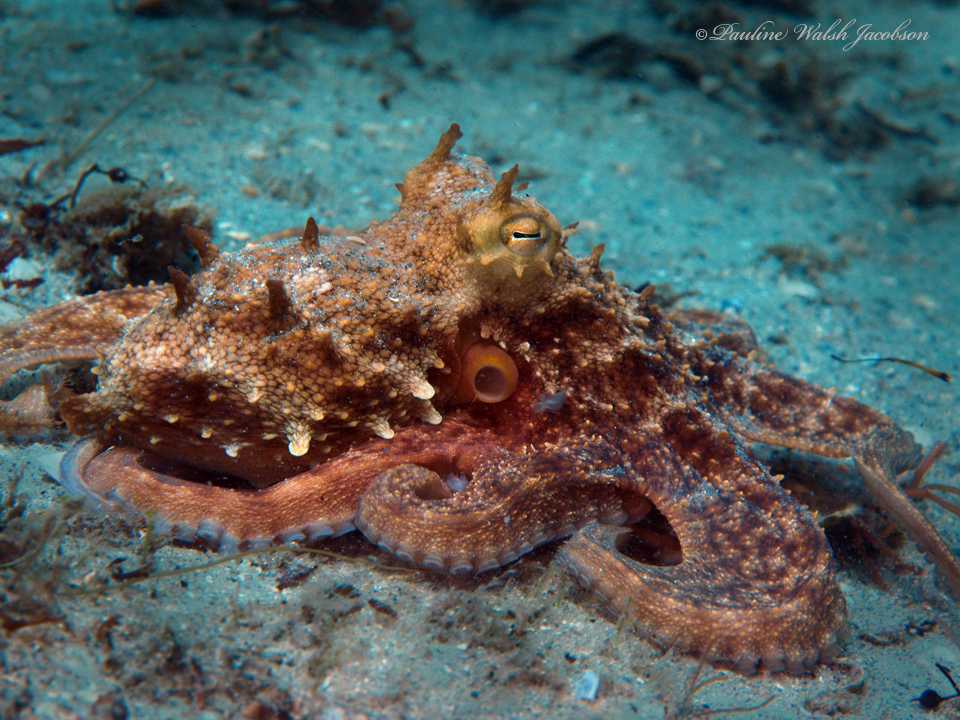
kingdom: Animalia
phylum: Mollusca
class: Cephalopoda
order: Octopoda
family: Octopodidae
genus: Octopus
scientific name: Octopus americanus
